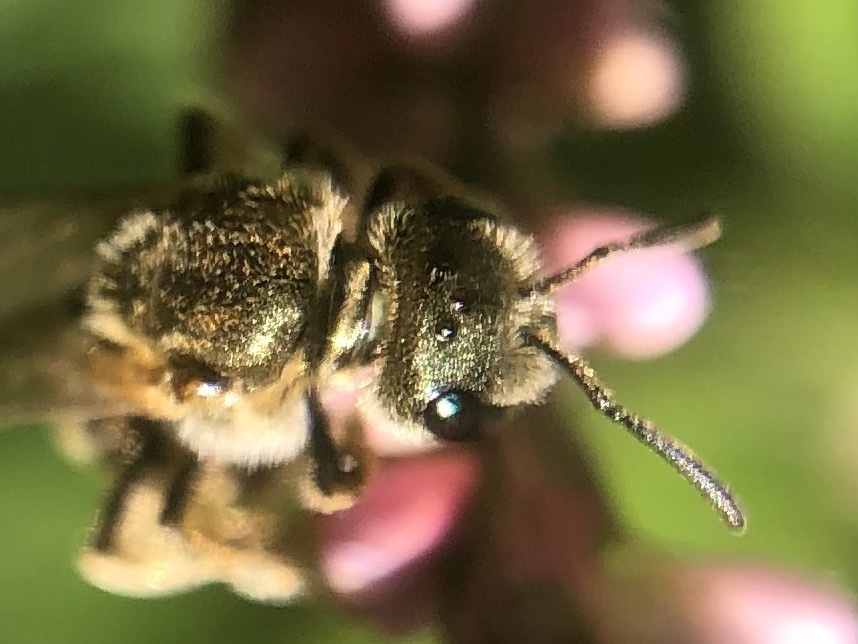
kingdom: Animalia
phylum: Arthropoda
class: Insecta
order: Hymenoptera
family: Halictidae
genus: Halictus
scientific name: Halictus confusus
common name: Southern bronze furrow bee
